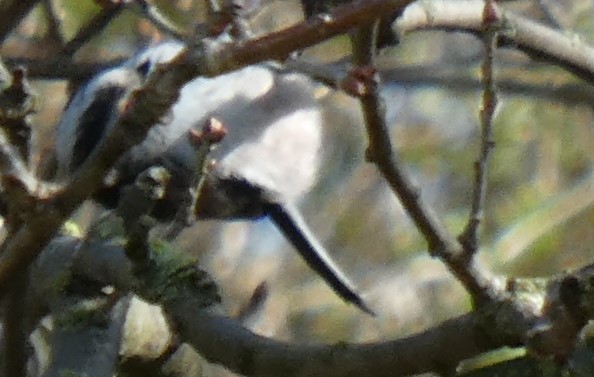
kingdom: Animalia
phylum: Chordata
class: Aves
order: Passeriformes
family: Aegithalidae
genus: Aegithalos
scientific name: Aegithalos caudatus
